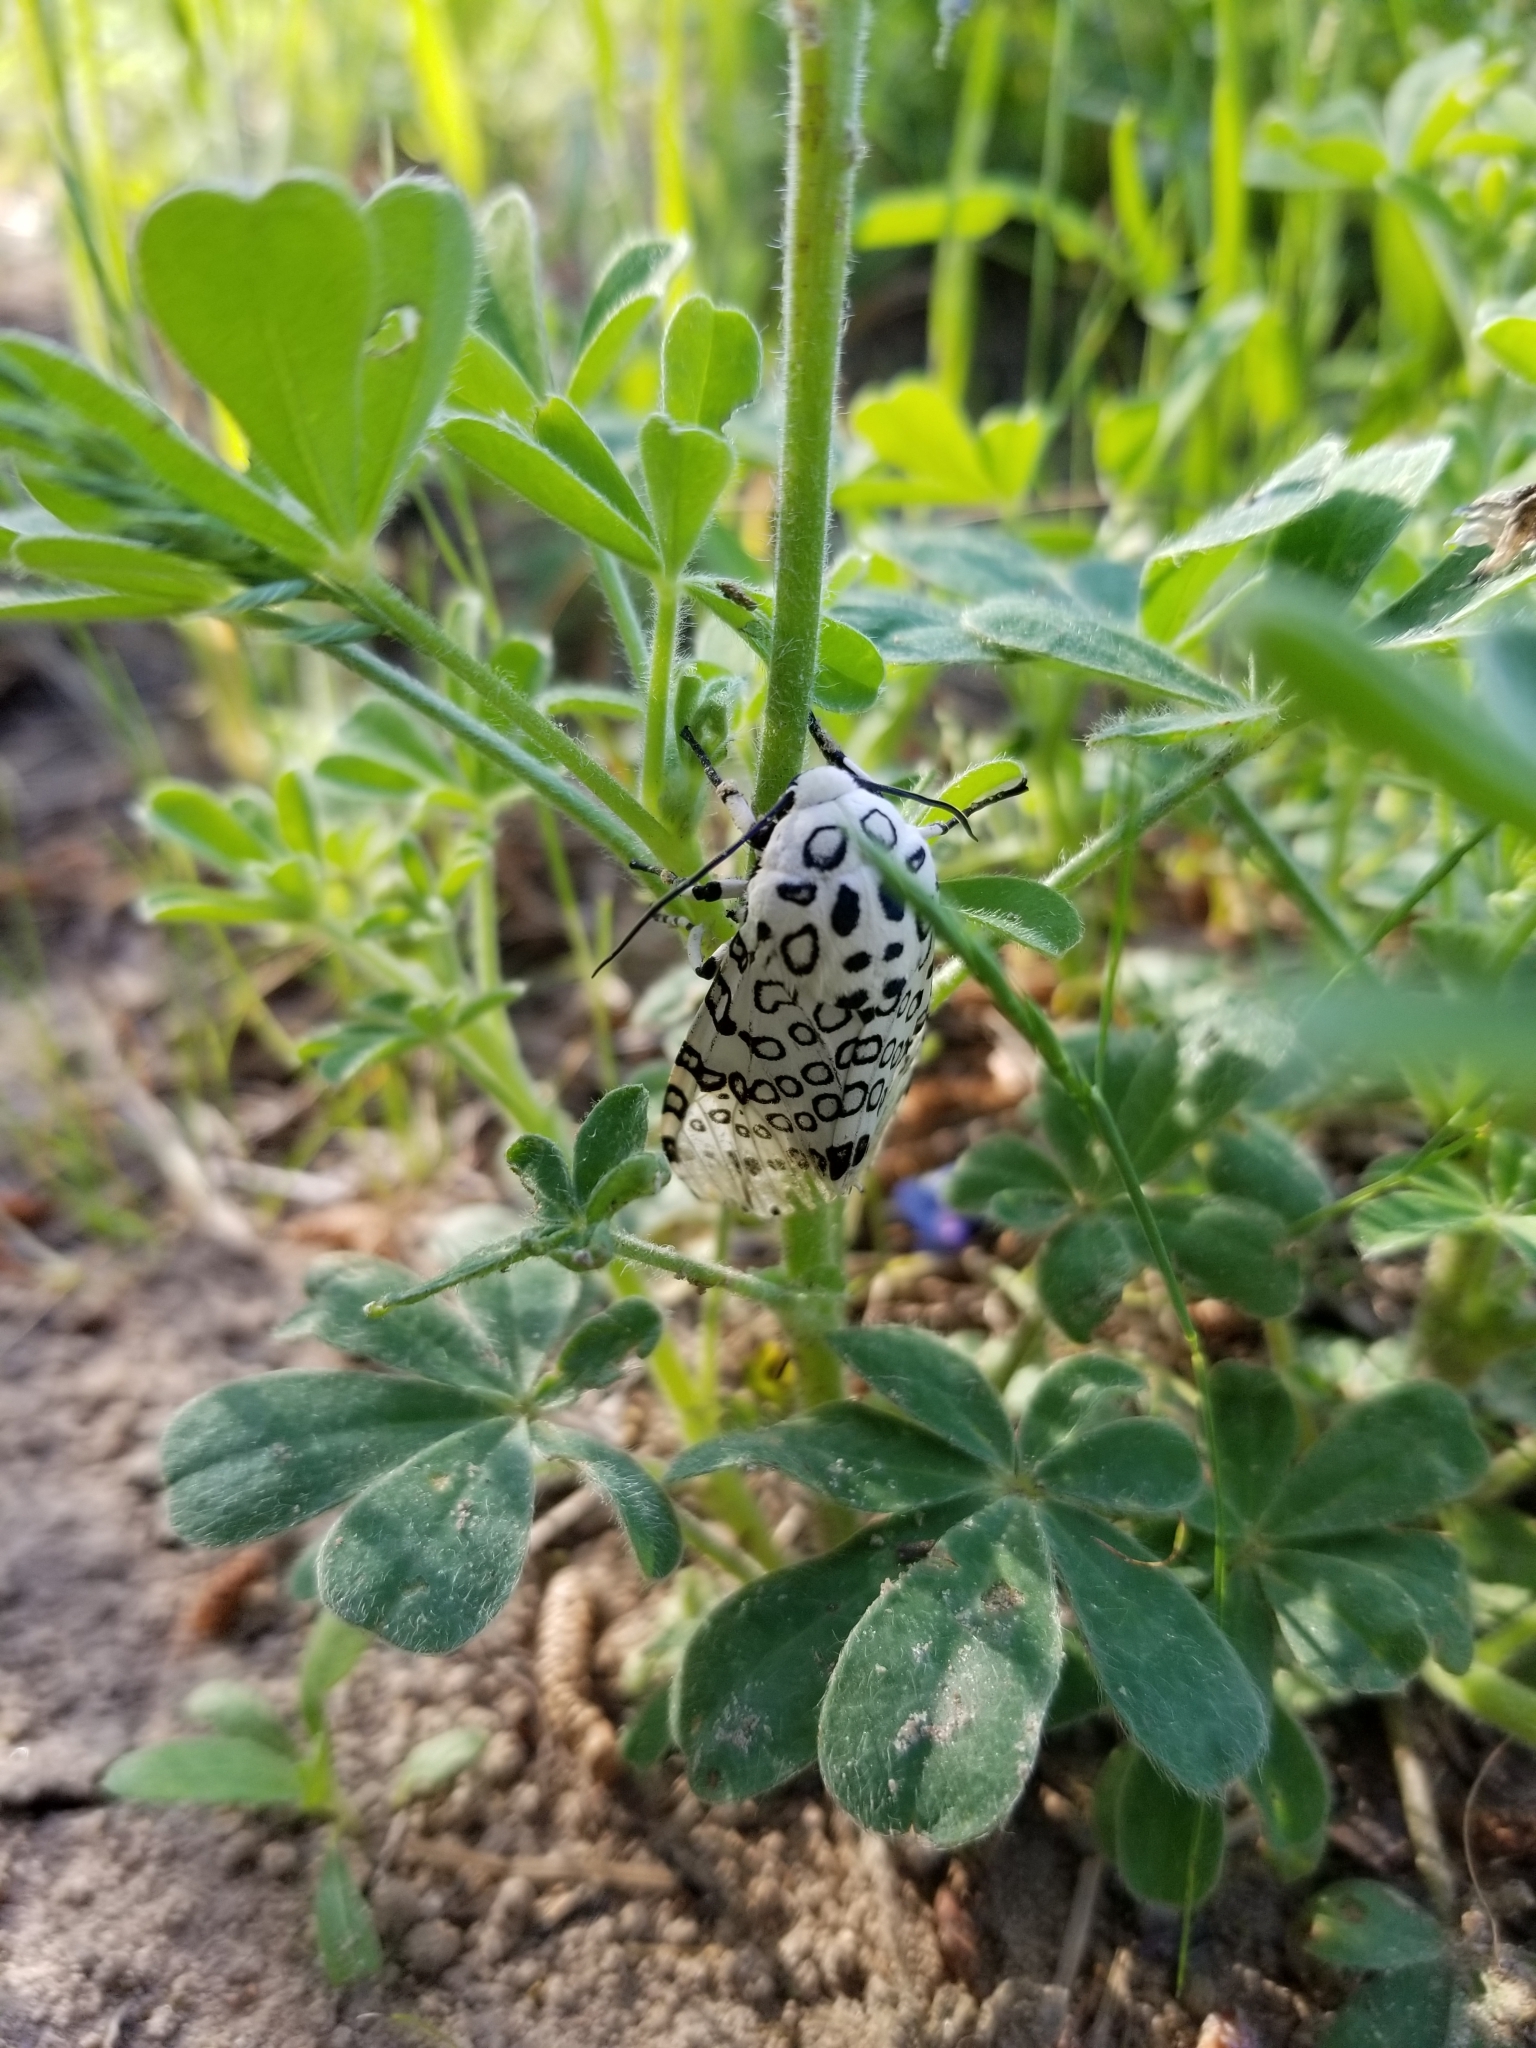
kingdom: Animalia
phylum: Arthropoda
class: Insecta
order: Lepidoptera
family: Erebidae
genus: Hypercompe
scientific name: Hypercompe scribonia
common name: Giant leopard moth
